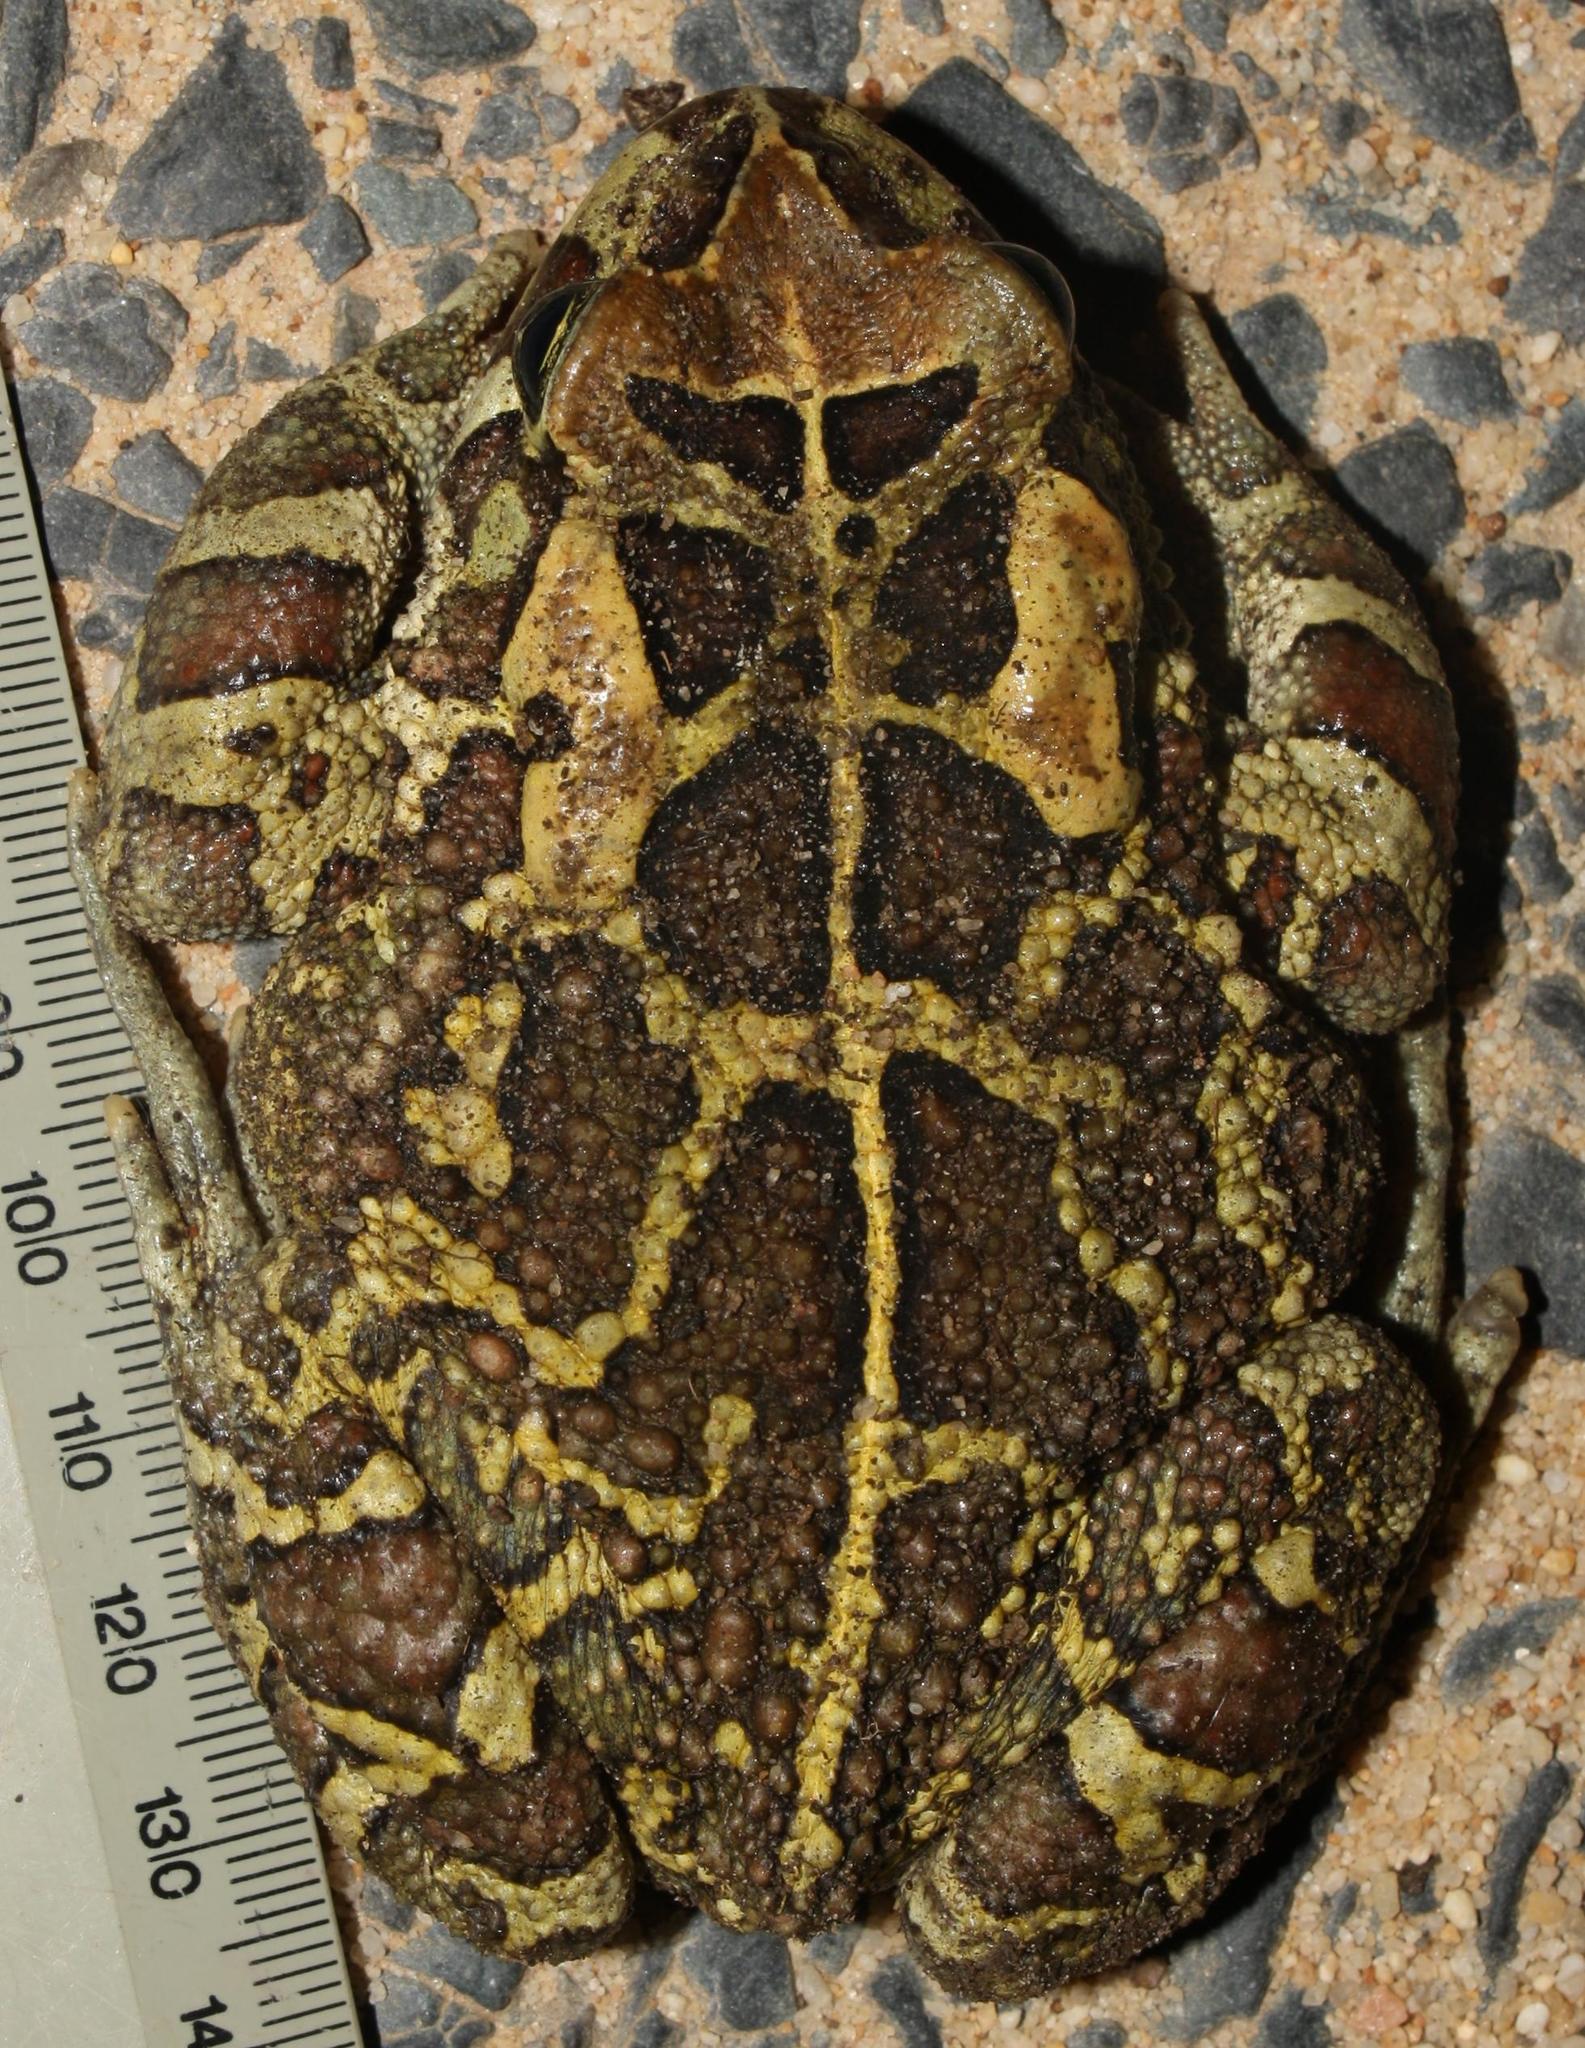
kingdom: Animalia
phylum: Chordata
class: Amphibia
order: Anura
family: Bufonidae
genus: Sclerophrys
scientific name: Sclerophrys pantherina
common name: Panther toad
